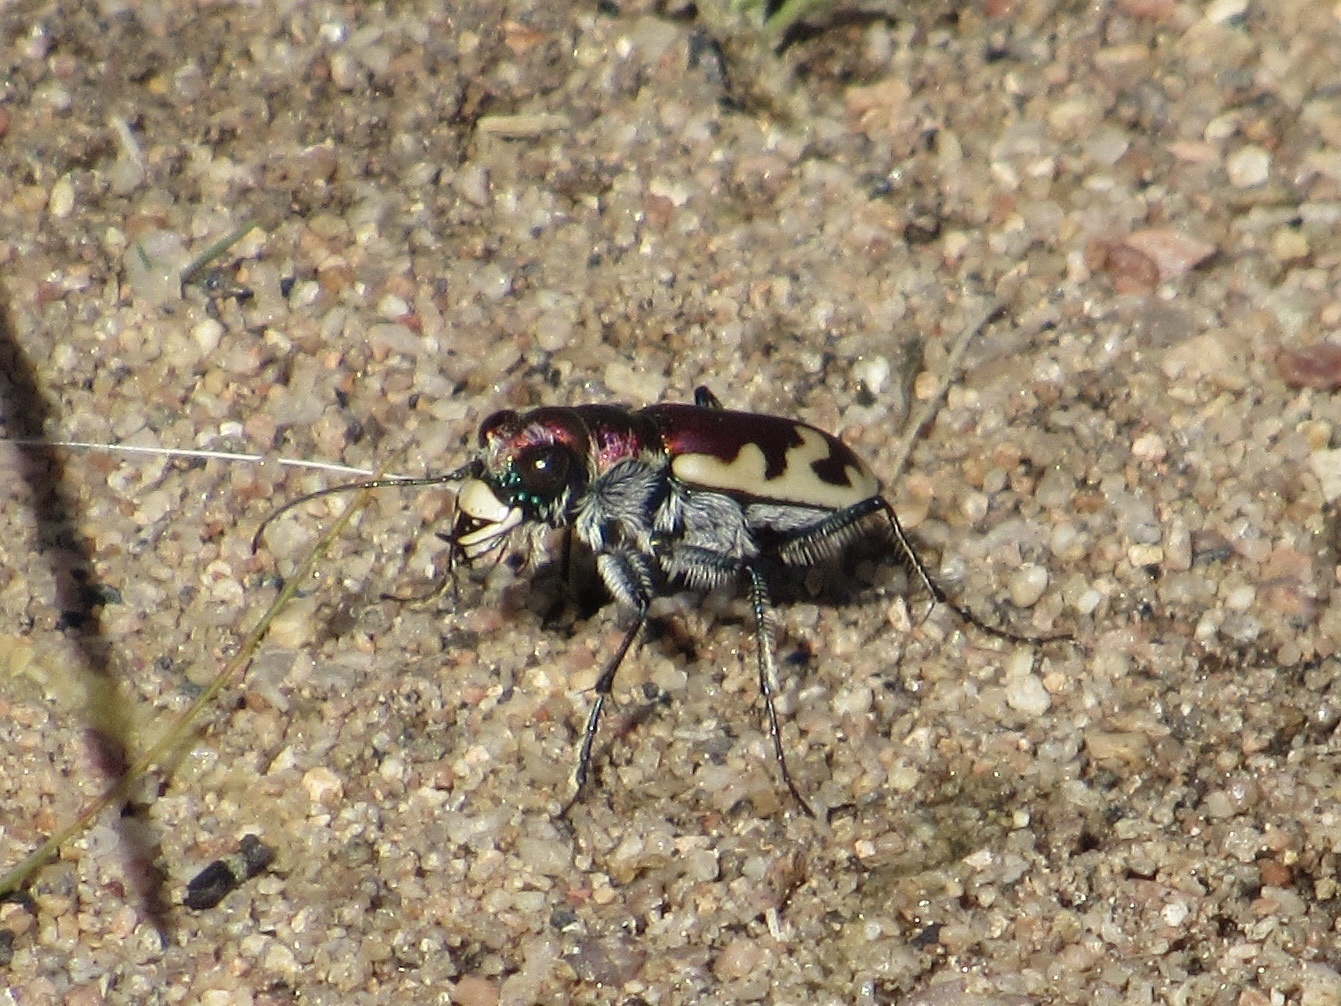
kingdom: Animalia
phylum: Arthropoda
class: Insecta
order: Coleoptera
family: Carabidae
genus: Cicindela
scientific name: Cicindela formosa
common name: Big sand tiger beetle
